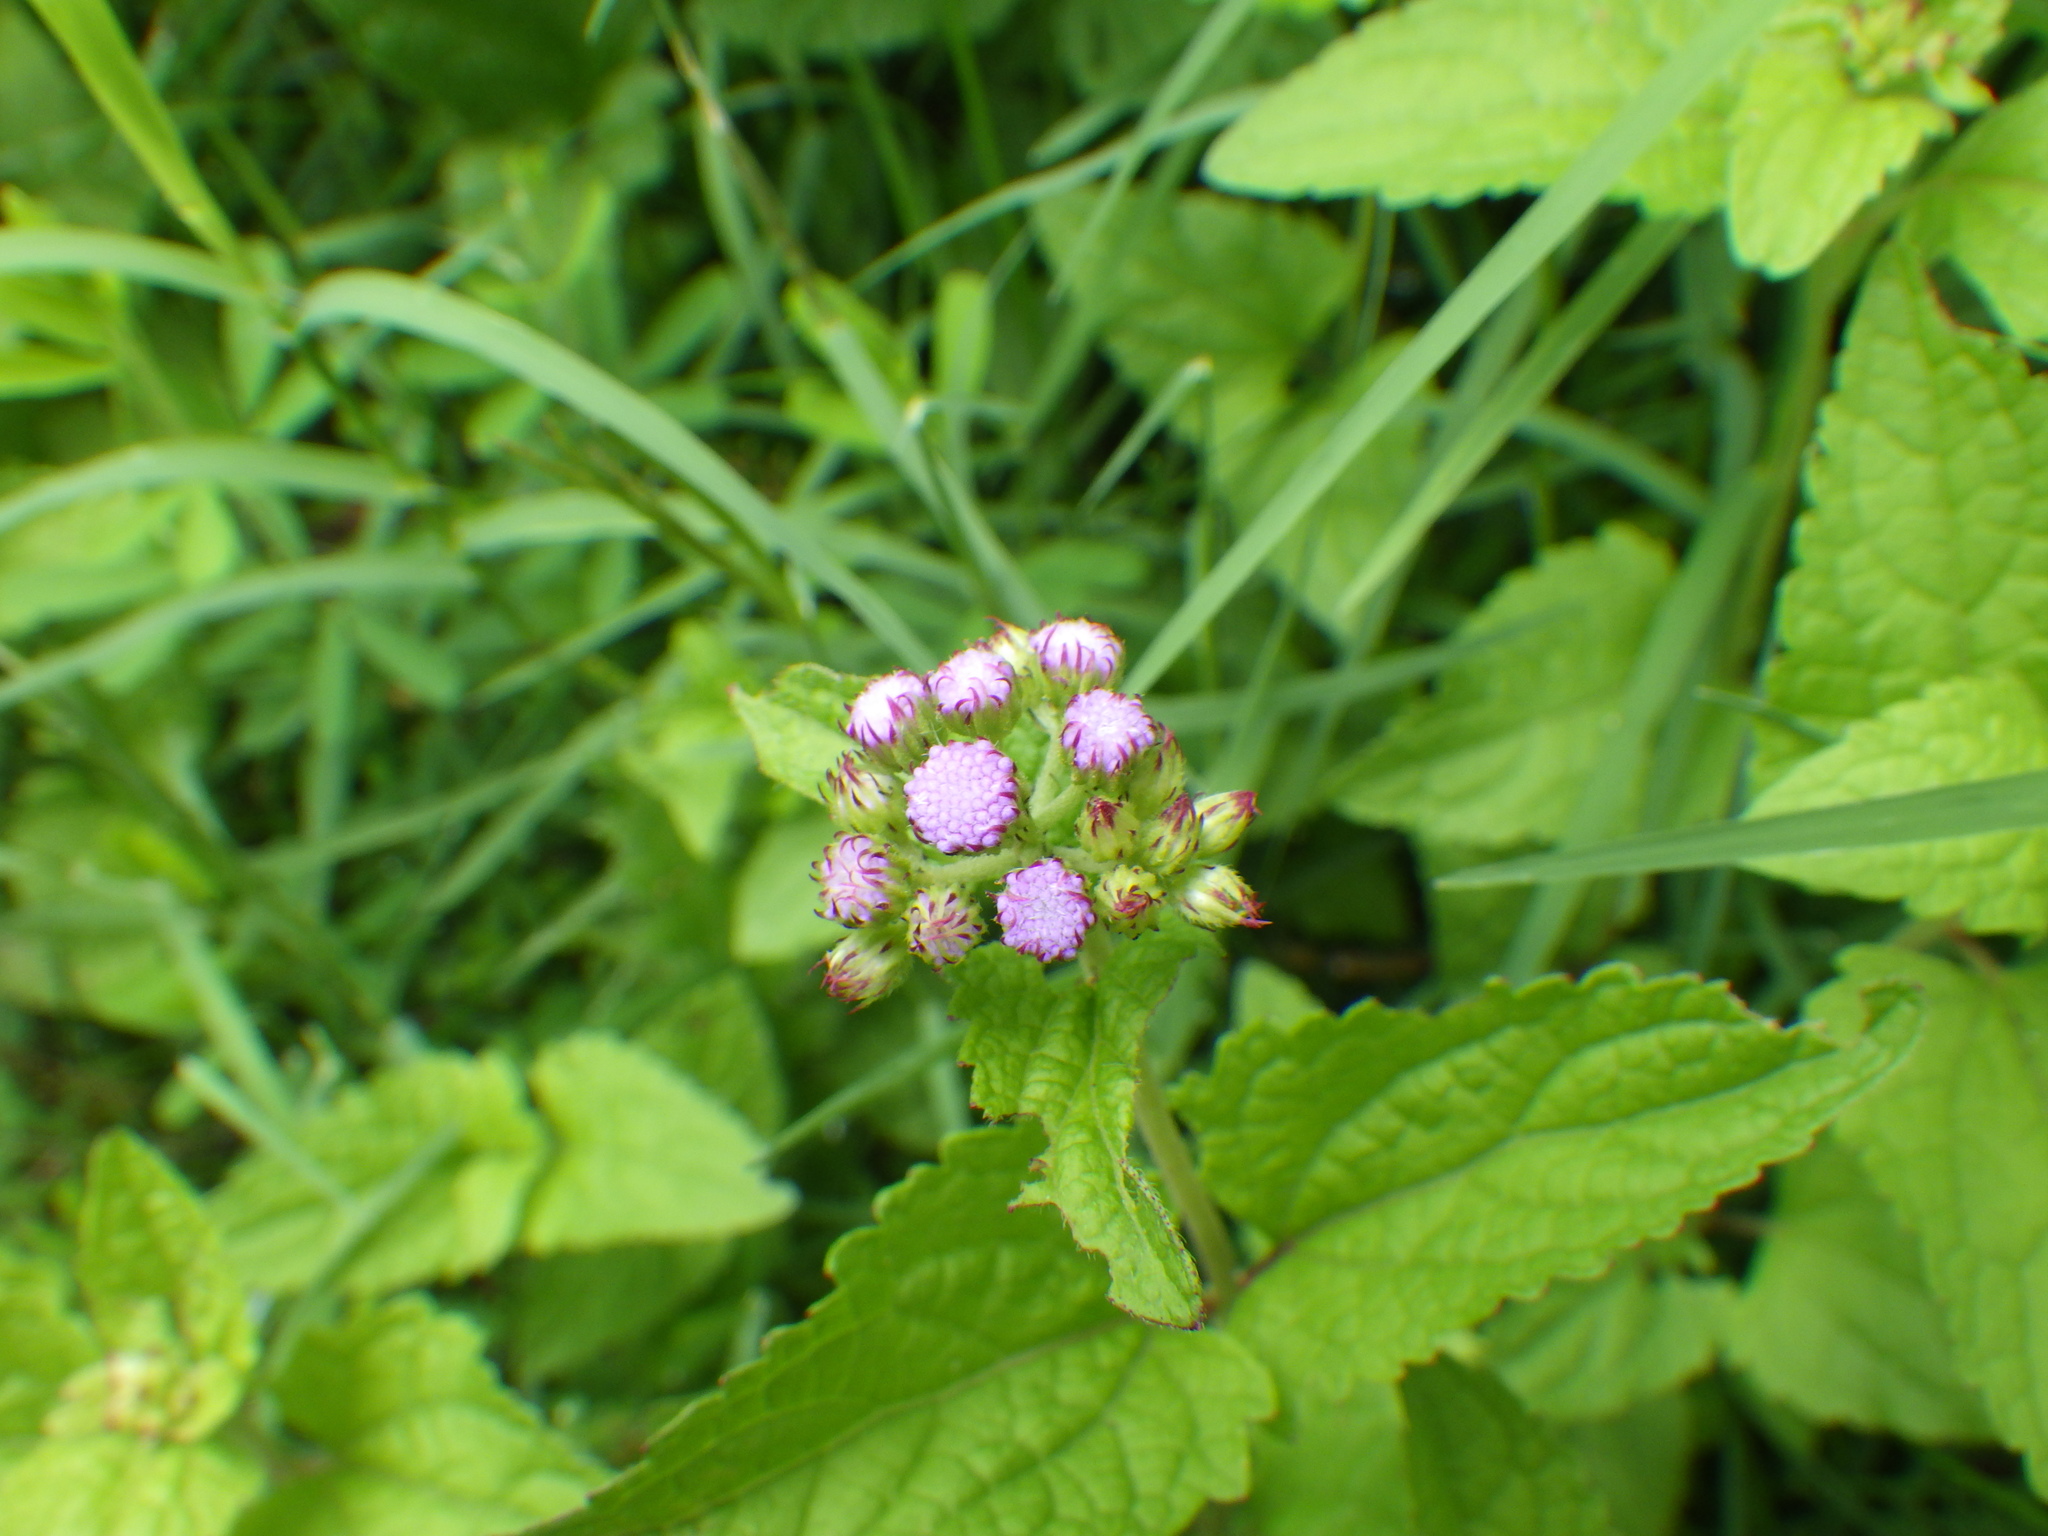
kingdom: Plantae
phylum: Tracheophyta
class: Magnoliopsida
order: Asterales
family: Asteraceae
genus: Conoclinium
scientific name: Conoclinium coelestinum
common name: Blue mistflower
